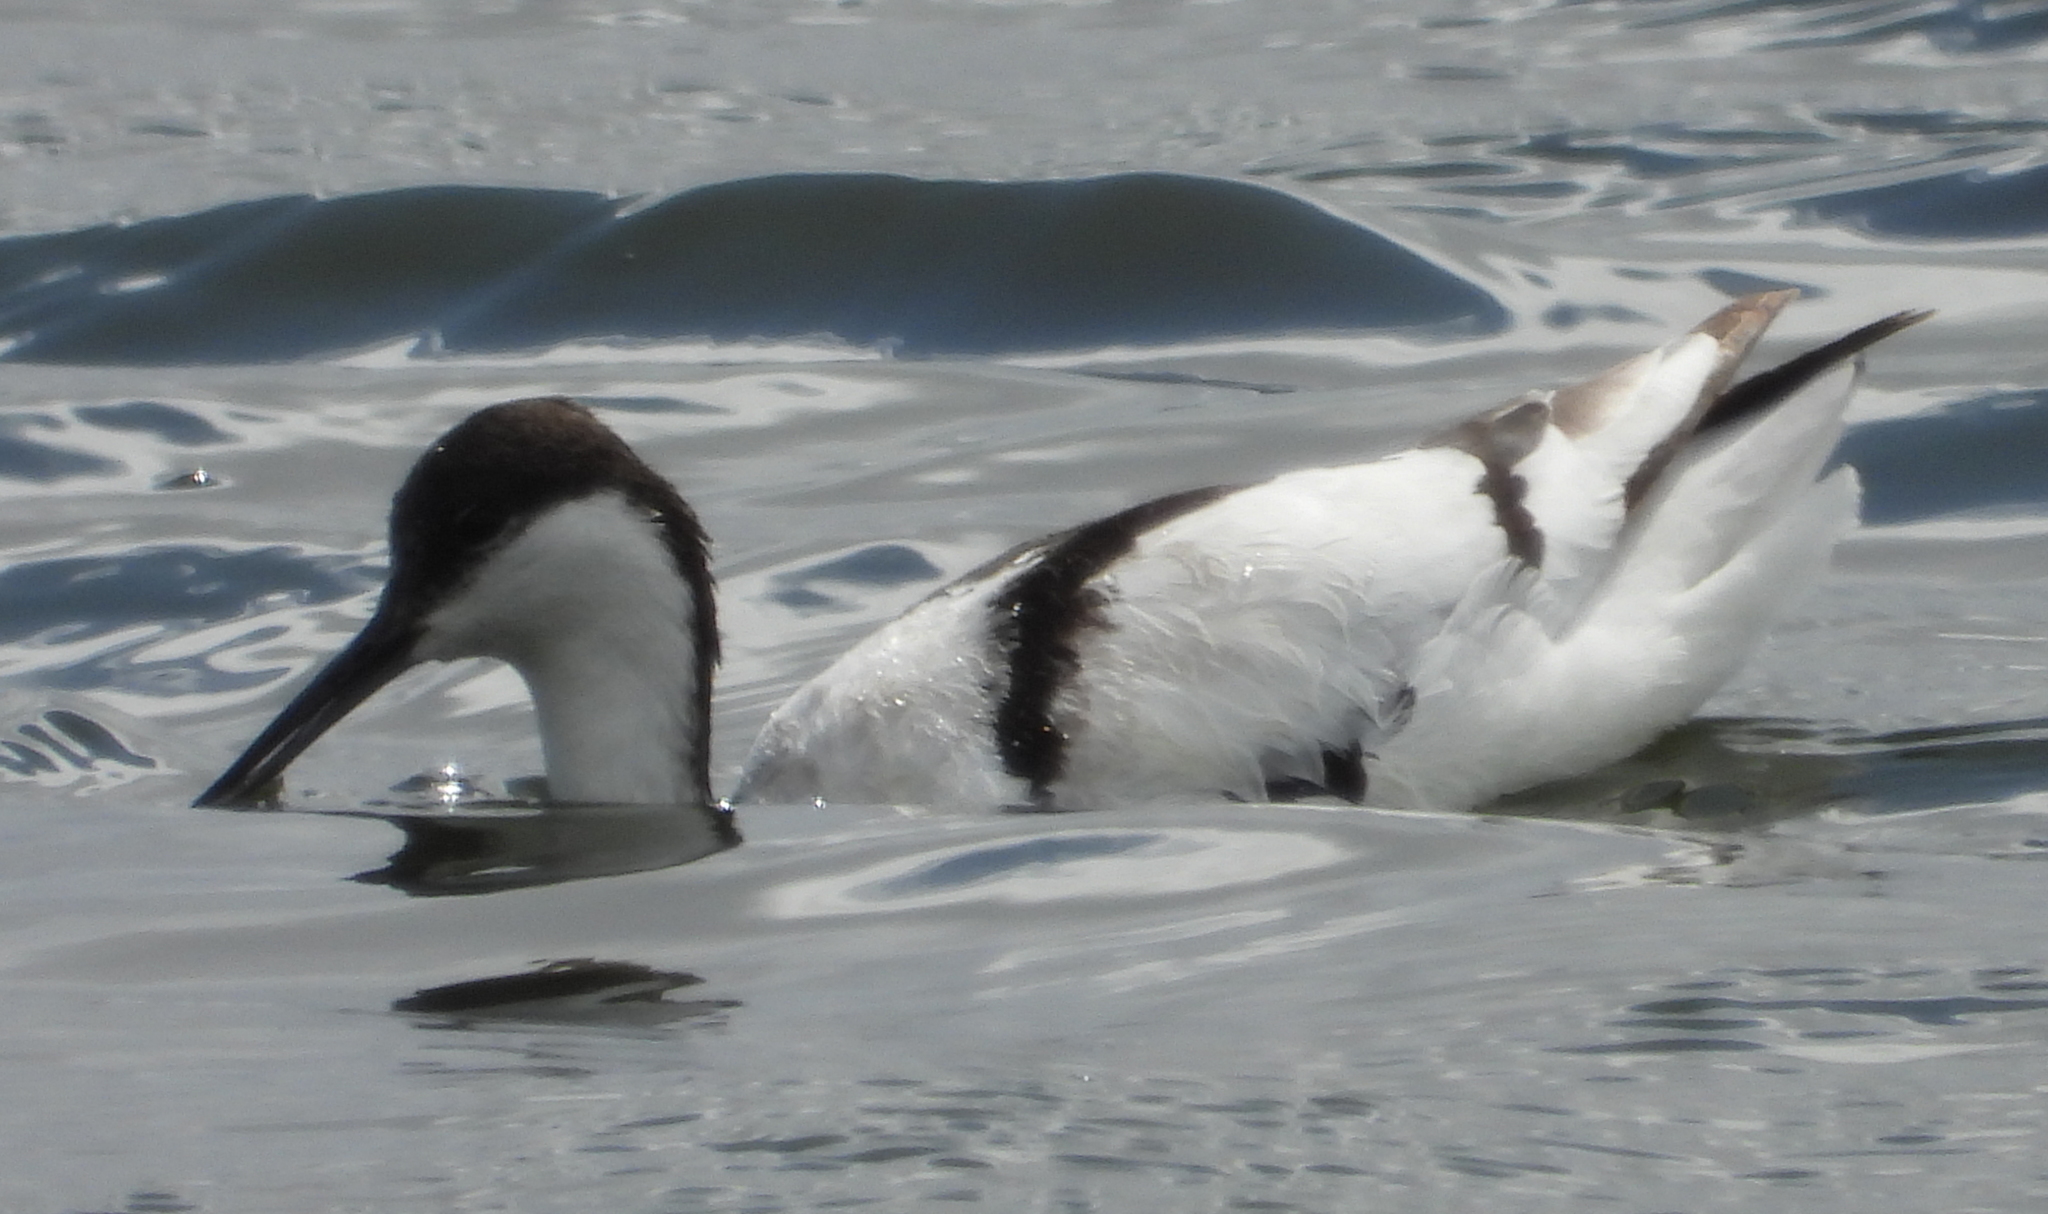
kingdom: Animalia
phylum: Chordata
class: Aves
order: Charadriiformes
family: Recurvirostridae
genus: Recurvirostra
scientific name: Recurvirostra avosetta
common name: Pied avocet
